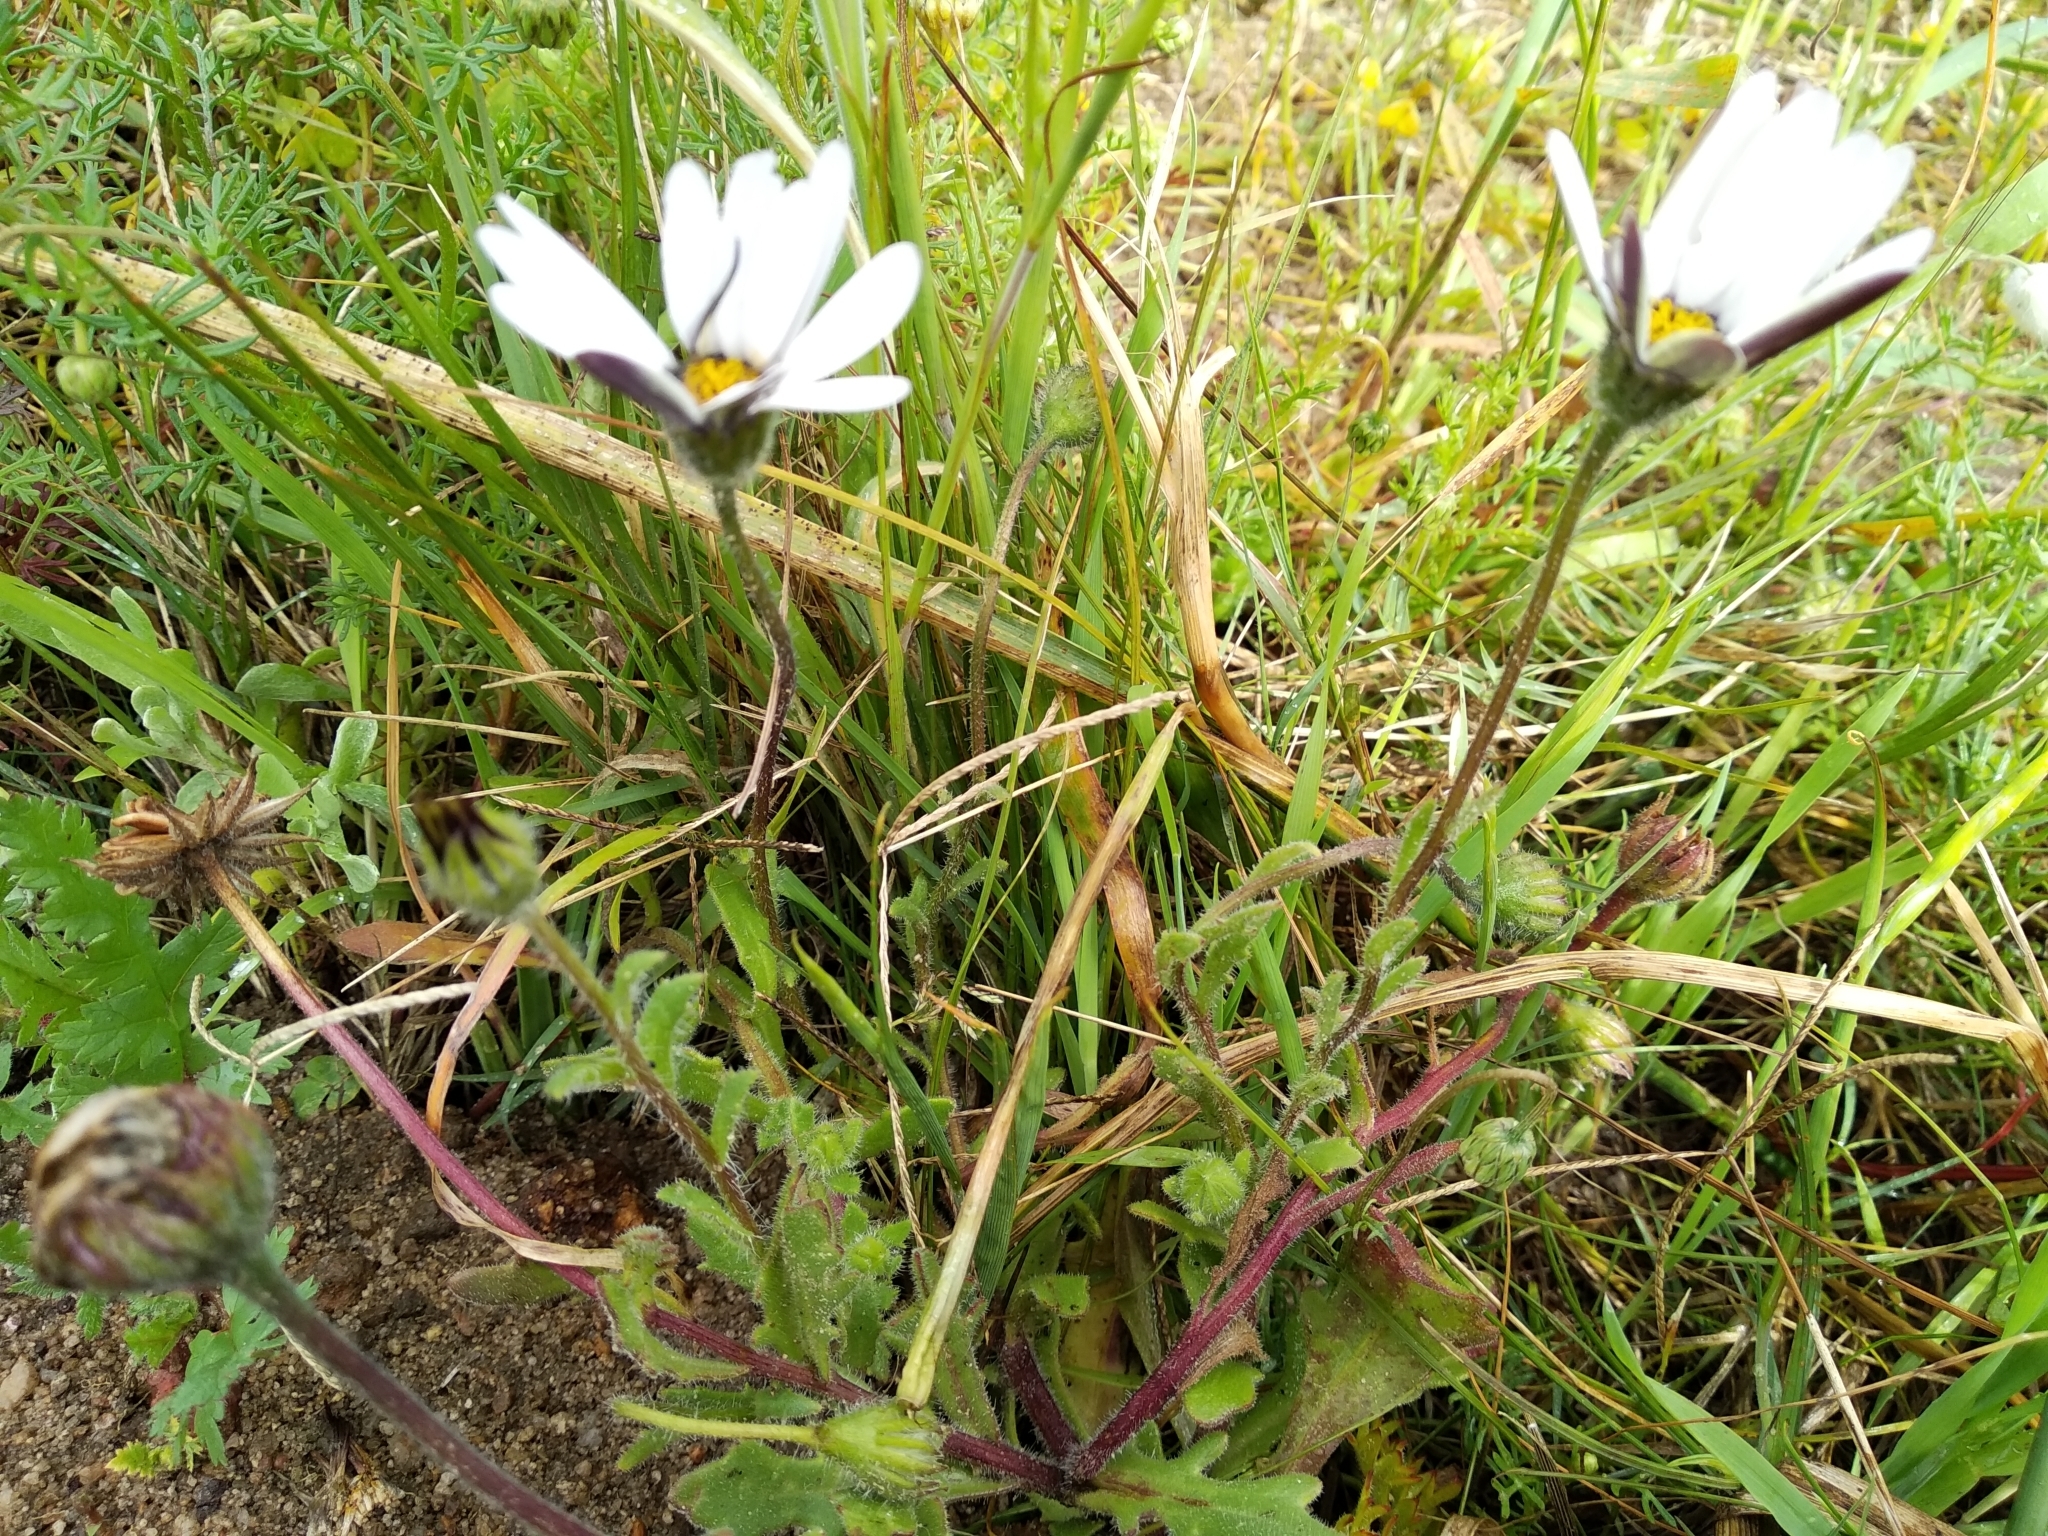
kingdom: Plantae
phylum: Tracheophyta
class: Magnoliopsida
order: Asterales
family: Asteraceae
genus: Dimorphotheca
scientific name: Dimorphotheca pluvialis
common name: Weather prophet
